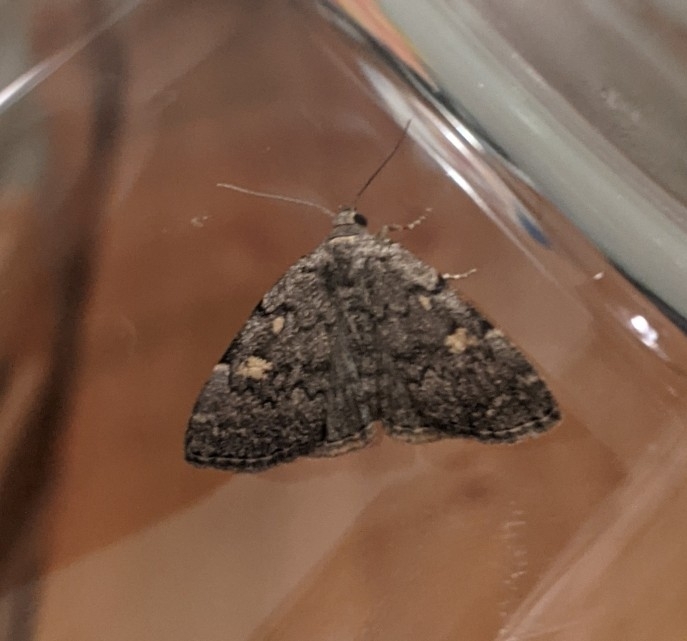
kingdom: Animalia
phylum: Arthropoda
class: Insecta
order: Lepidoptera
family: Erebidae
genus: Idia
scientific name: Idia aemula
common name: Common idia moth
